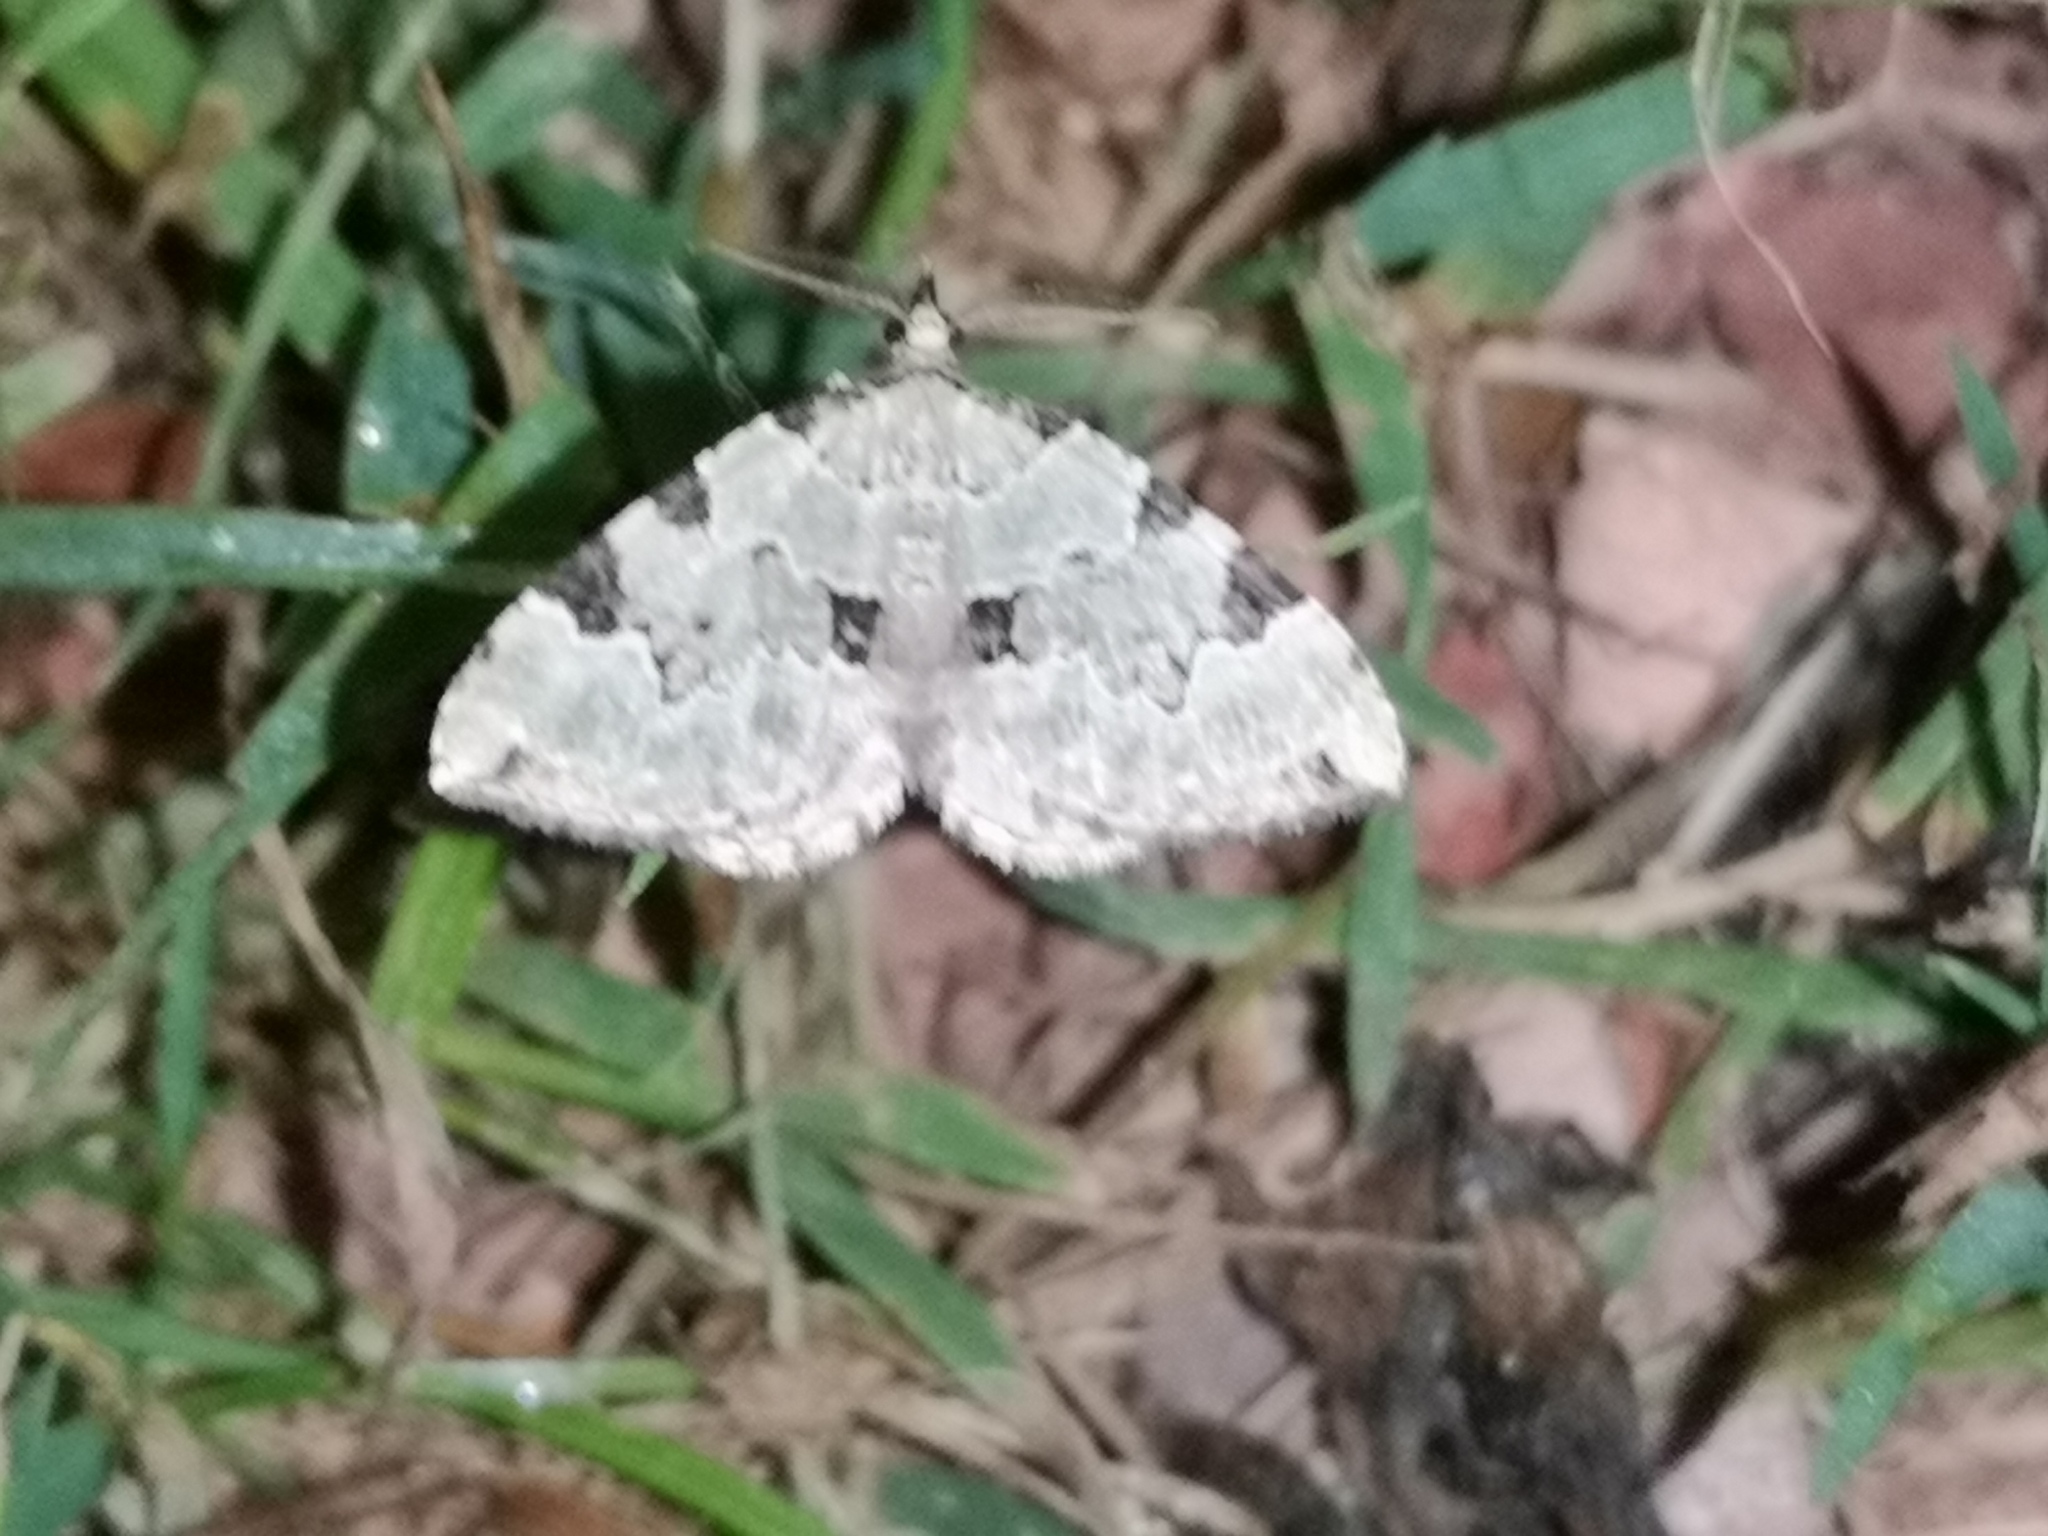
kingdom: Animalia
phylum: Arthropoda
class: Insecta
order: Lepidoptera
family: Geometridae
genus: Colostygia
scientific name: Colostygia pectinataria
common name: Green carpet
